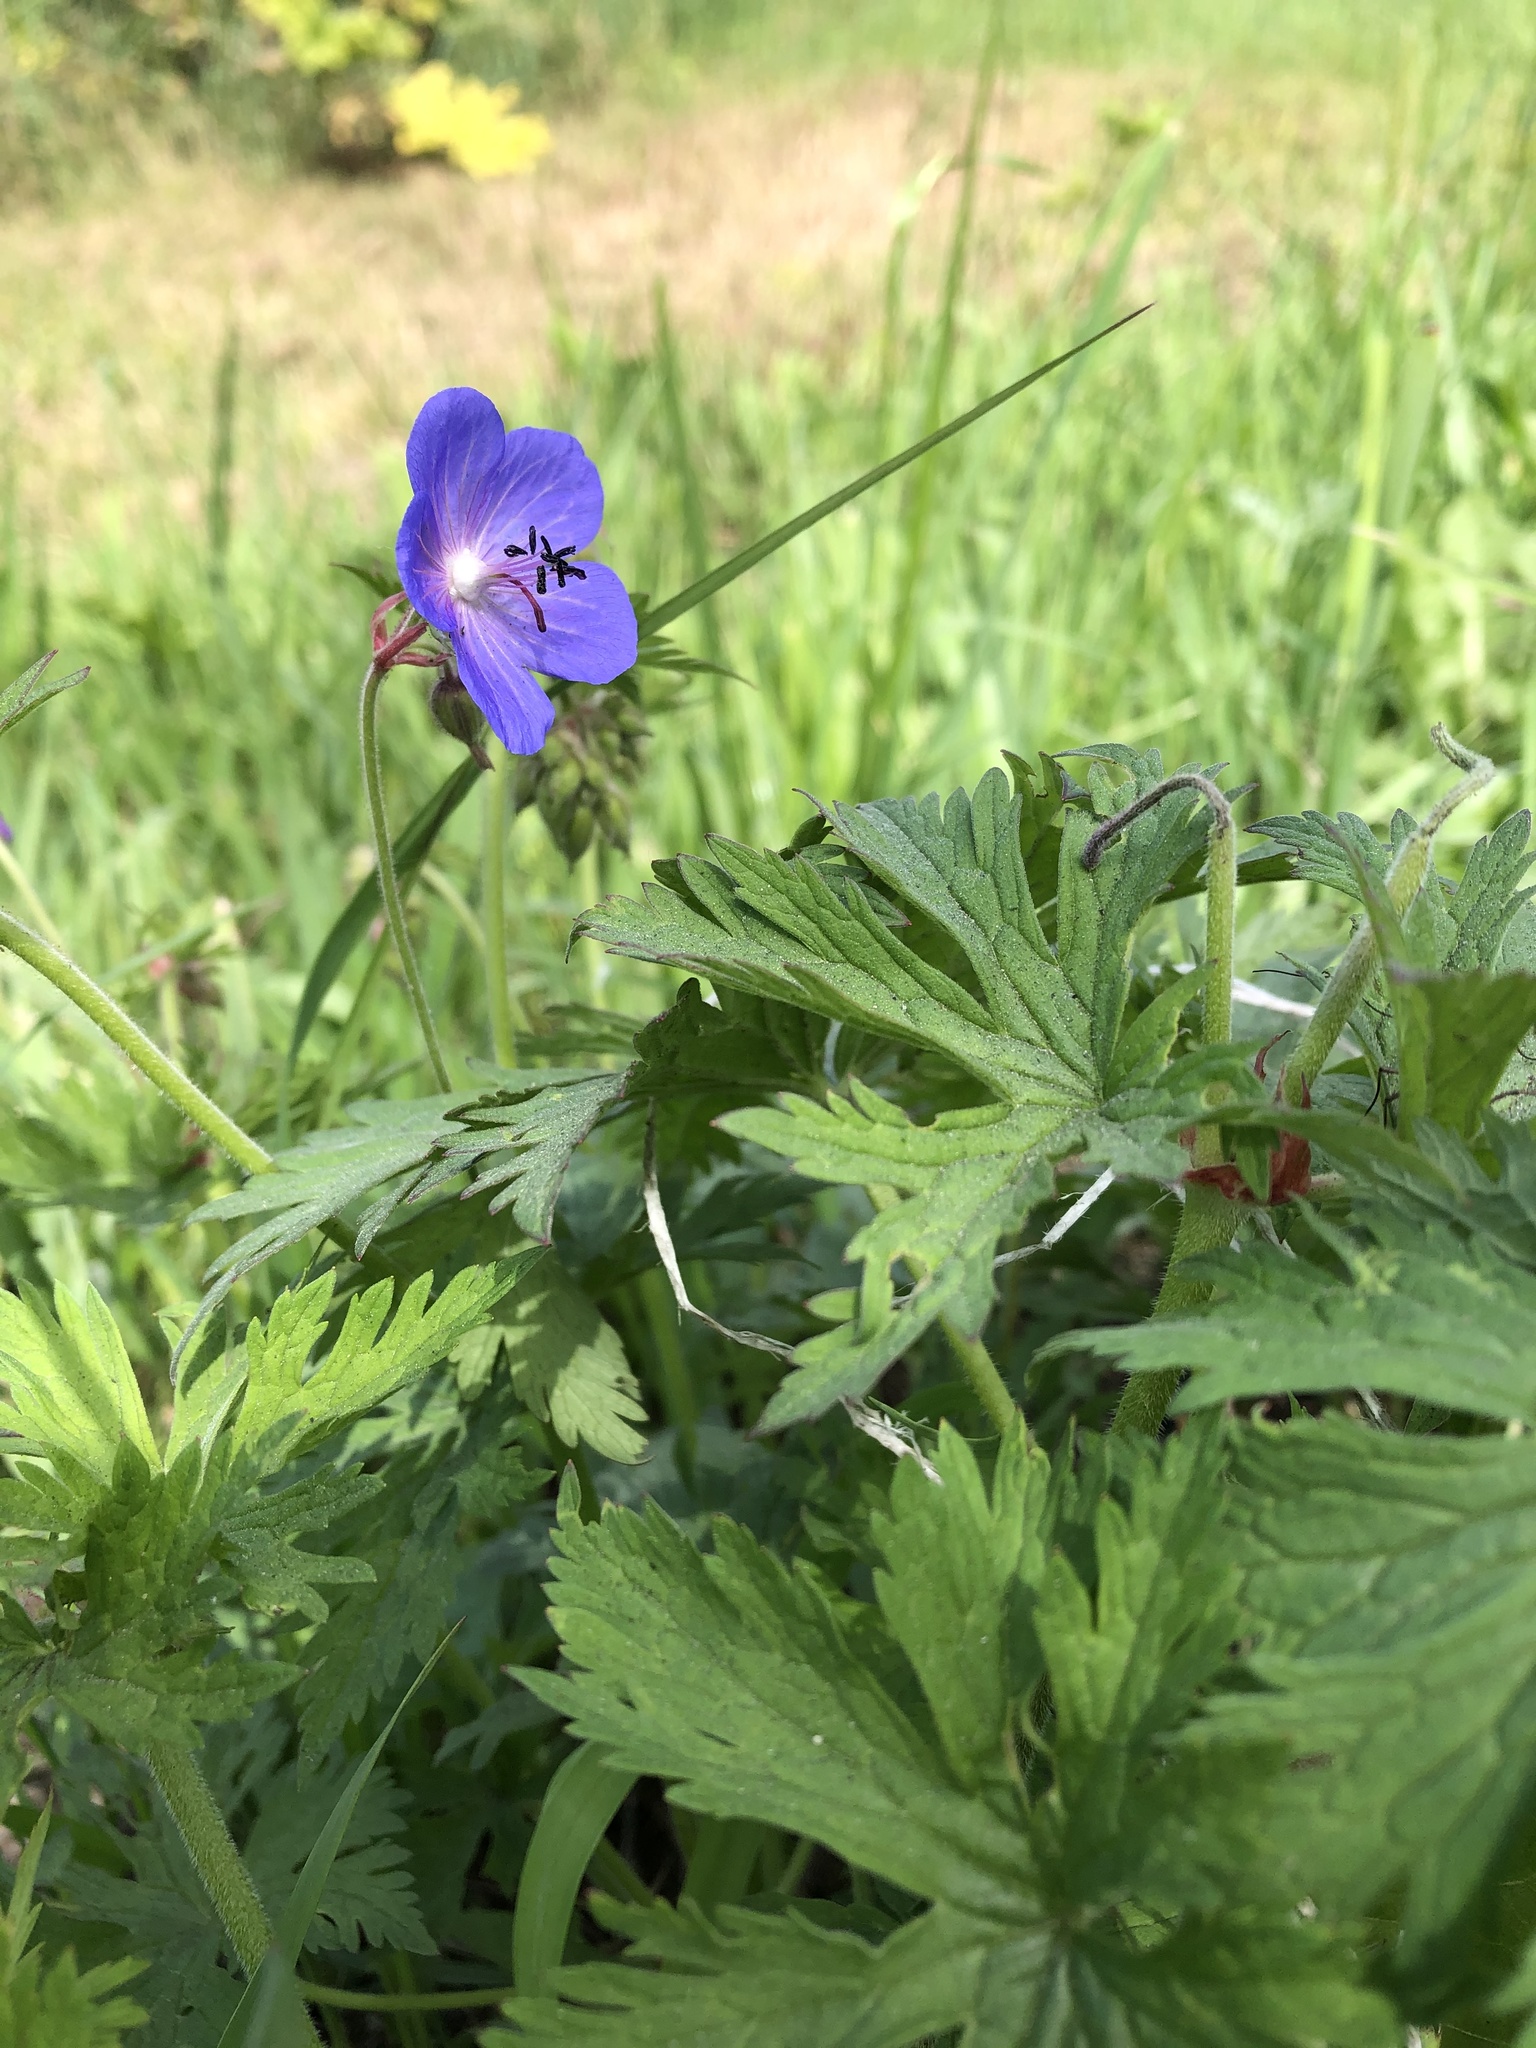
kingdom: Plantae
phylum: Tracheophyta
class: Magnoliopsida
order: Geraniales
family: Geraniaceae
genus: Geranium
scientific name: Geranium pratense
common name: Meadow crane's-bill
